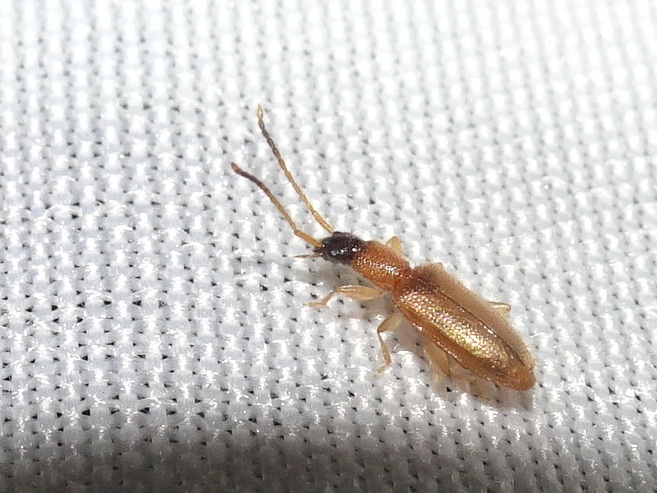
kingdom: Animalia
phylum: Arthropoda
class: Insecta
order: Coleoptera
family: Silvanidae
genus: Telephanus
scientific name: Telephanus velox
